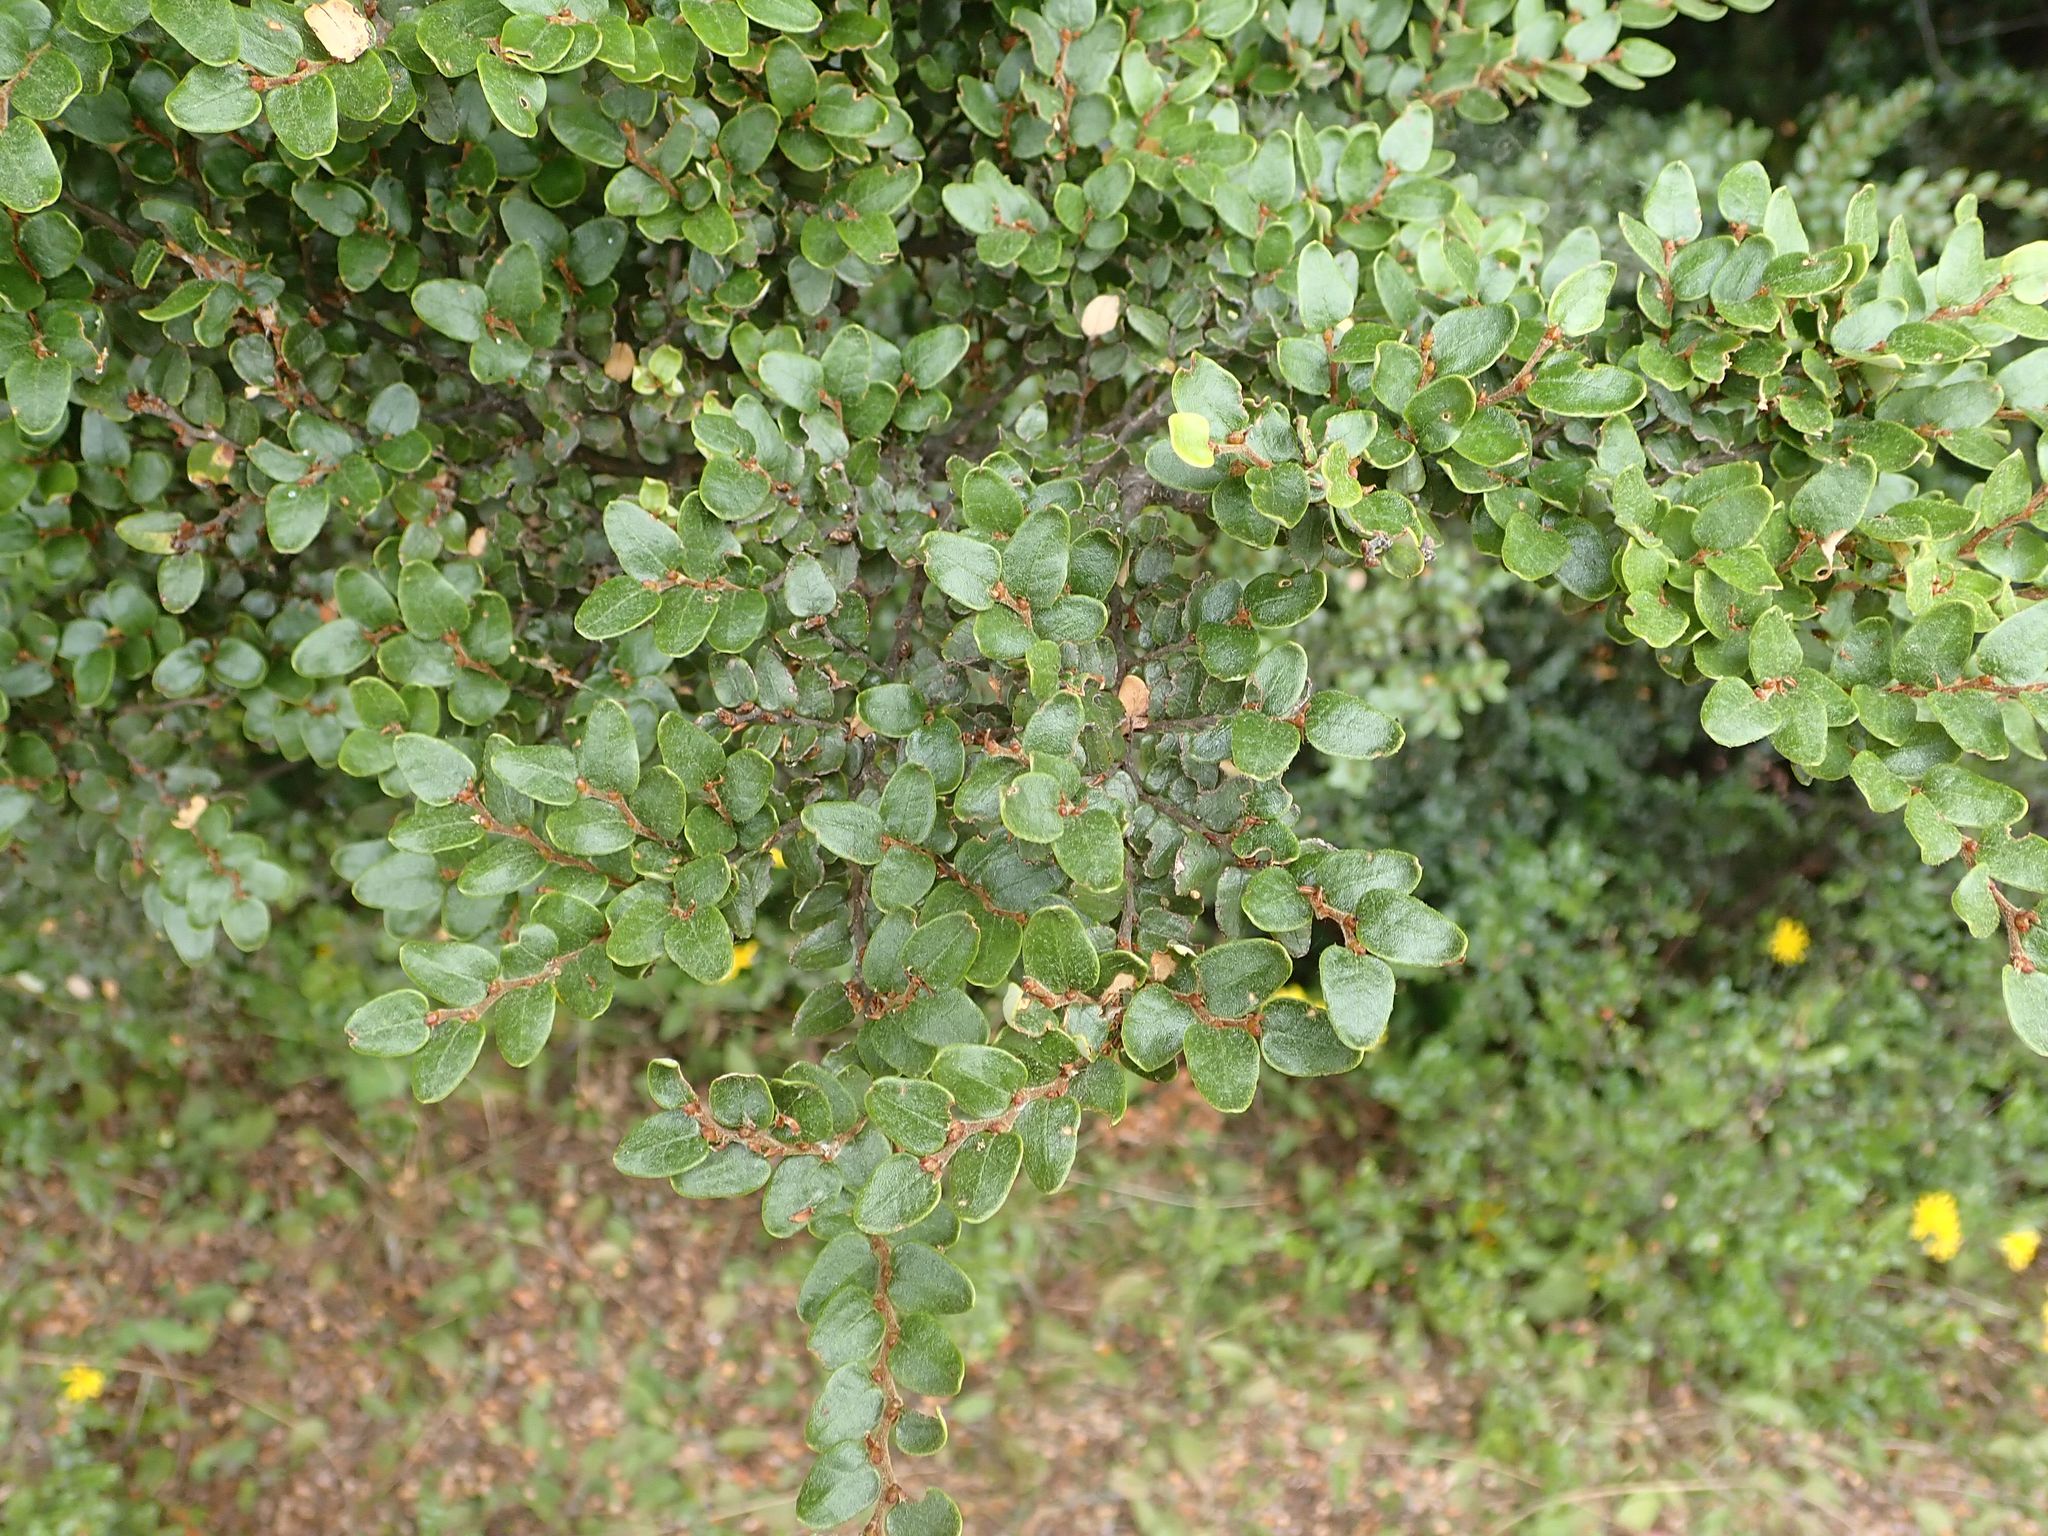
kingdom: Plantae
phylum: Tracheophyta
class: Magnoliopsida
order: Fagales
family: Nothofagaceae
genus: Nothofagus
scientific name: Nothofagus cliffortioides
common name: Mountain beech
